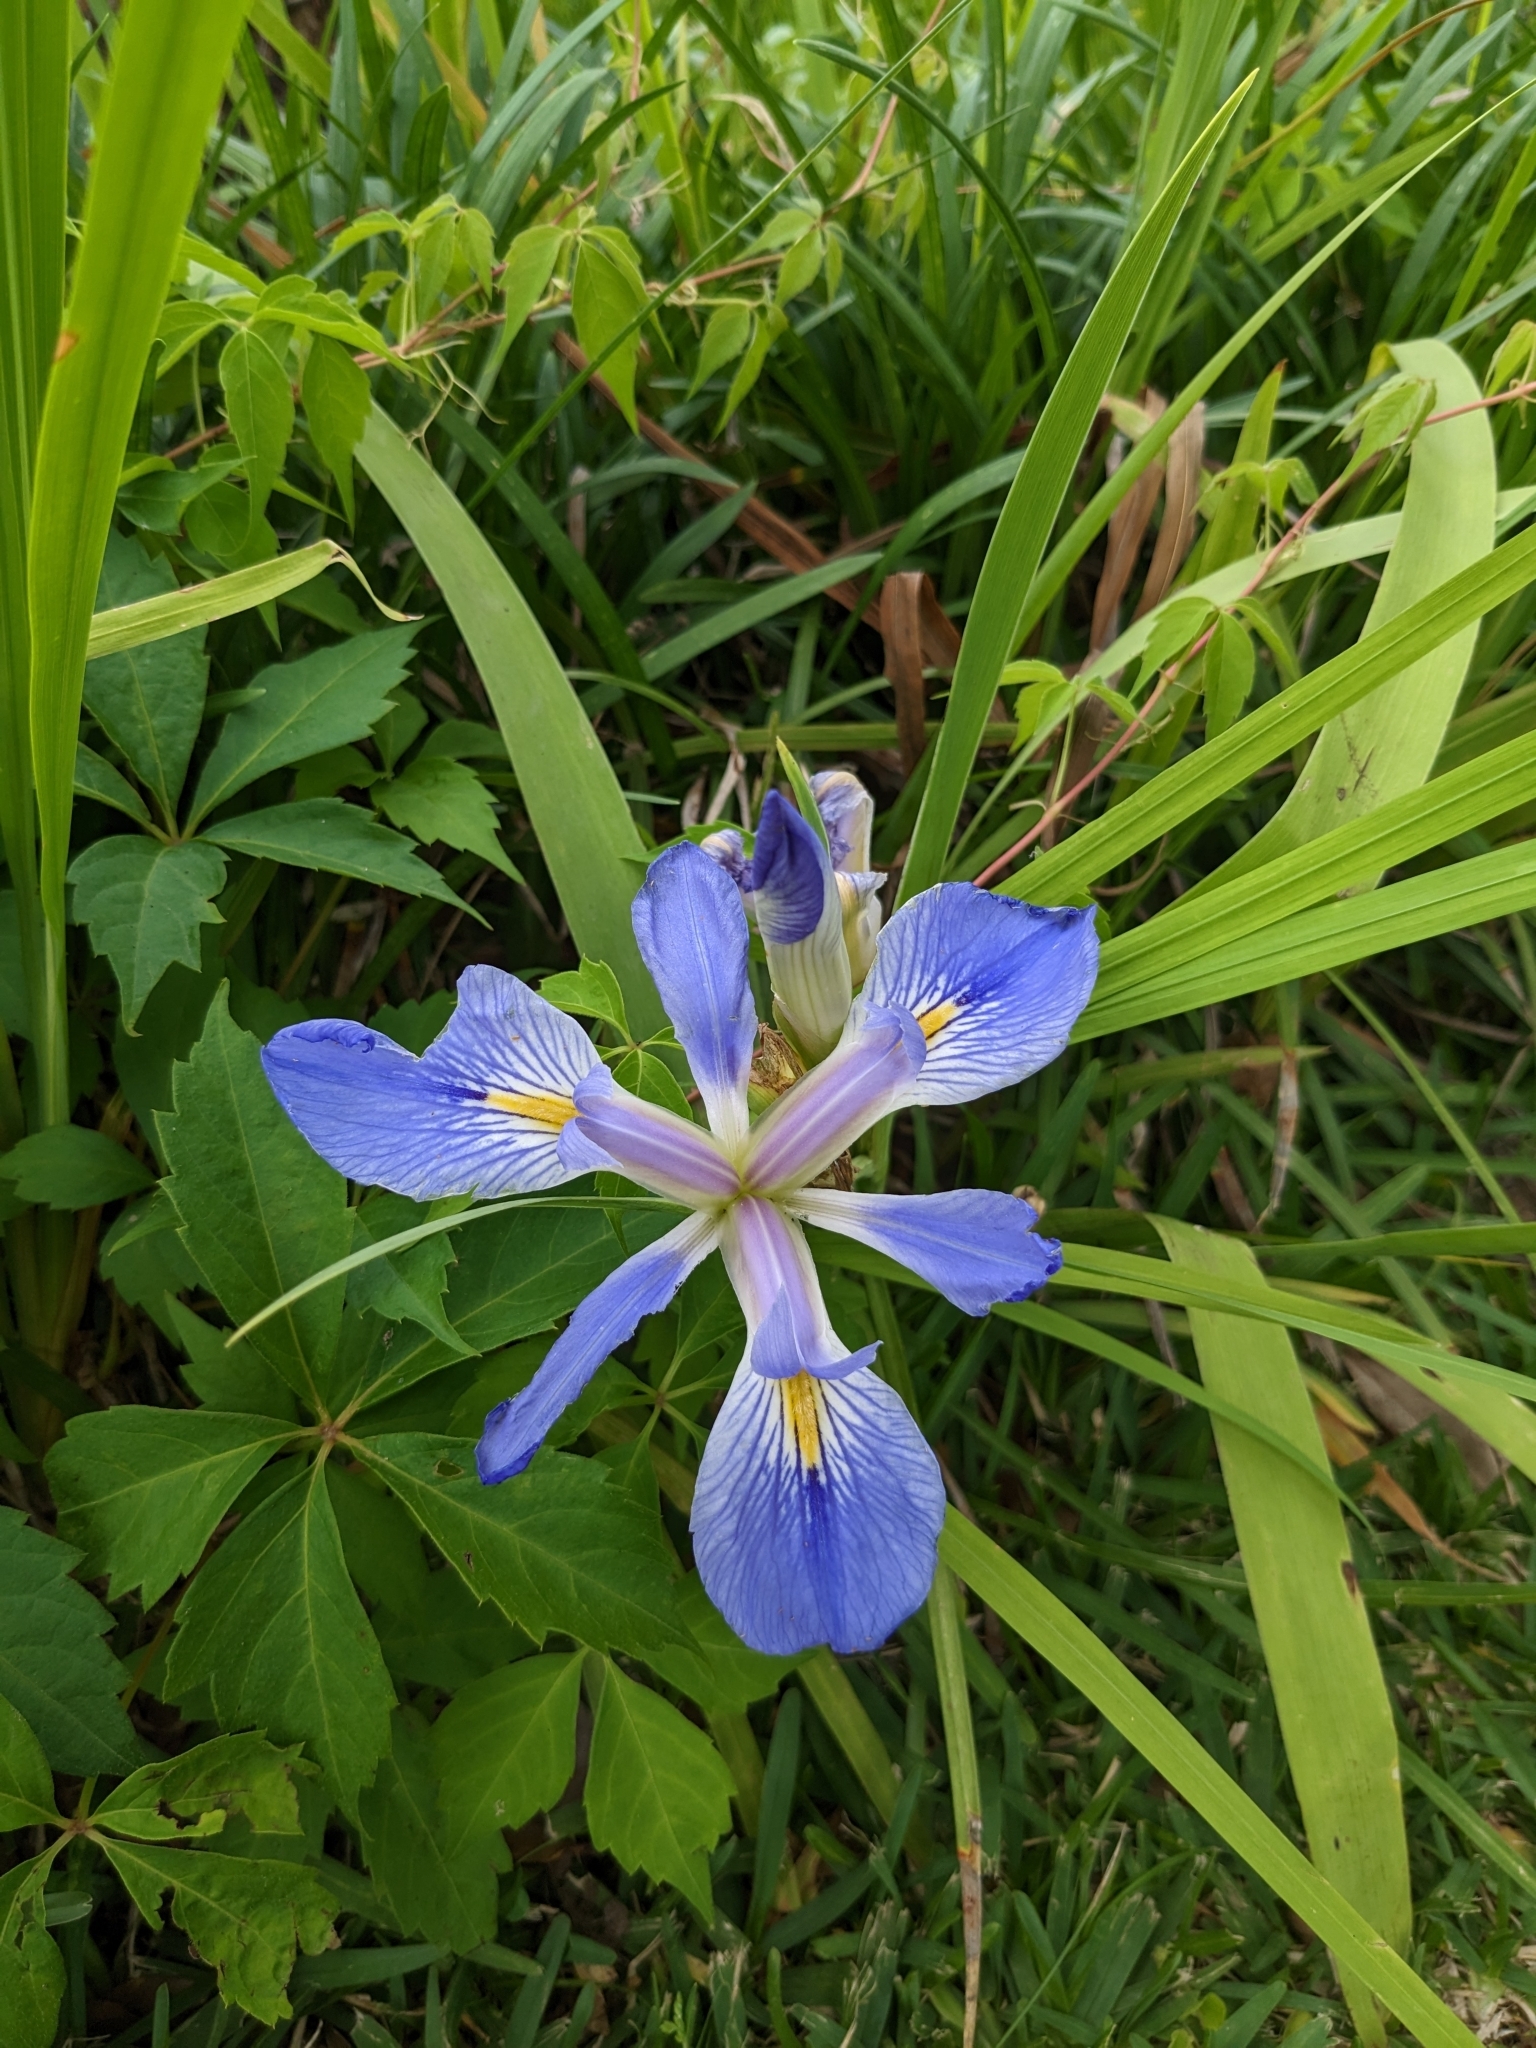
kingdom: Plantae
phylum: Tracheophyta
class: Liliopsida
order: Asparagales
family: Iridaceae
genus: Iris
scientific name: Iris brevicaulis
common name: Zigzag iris
